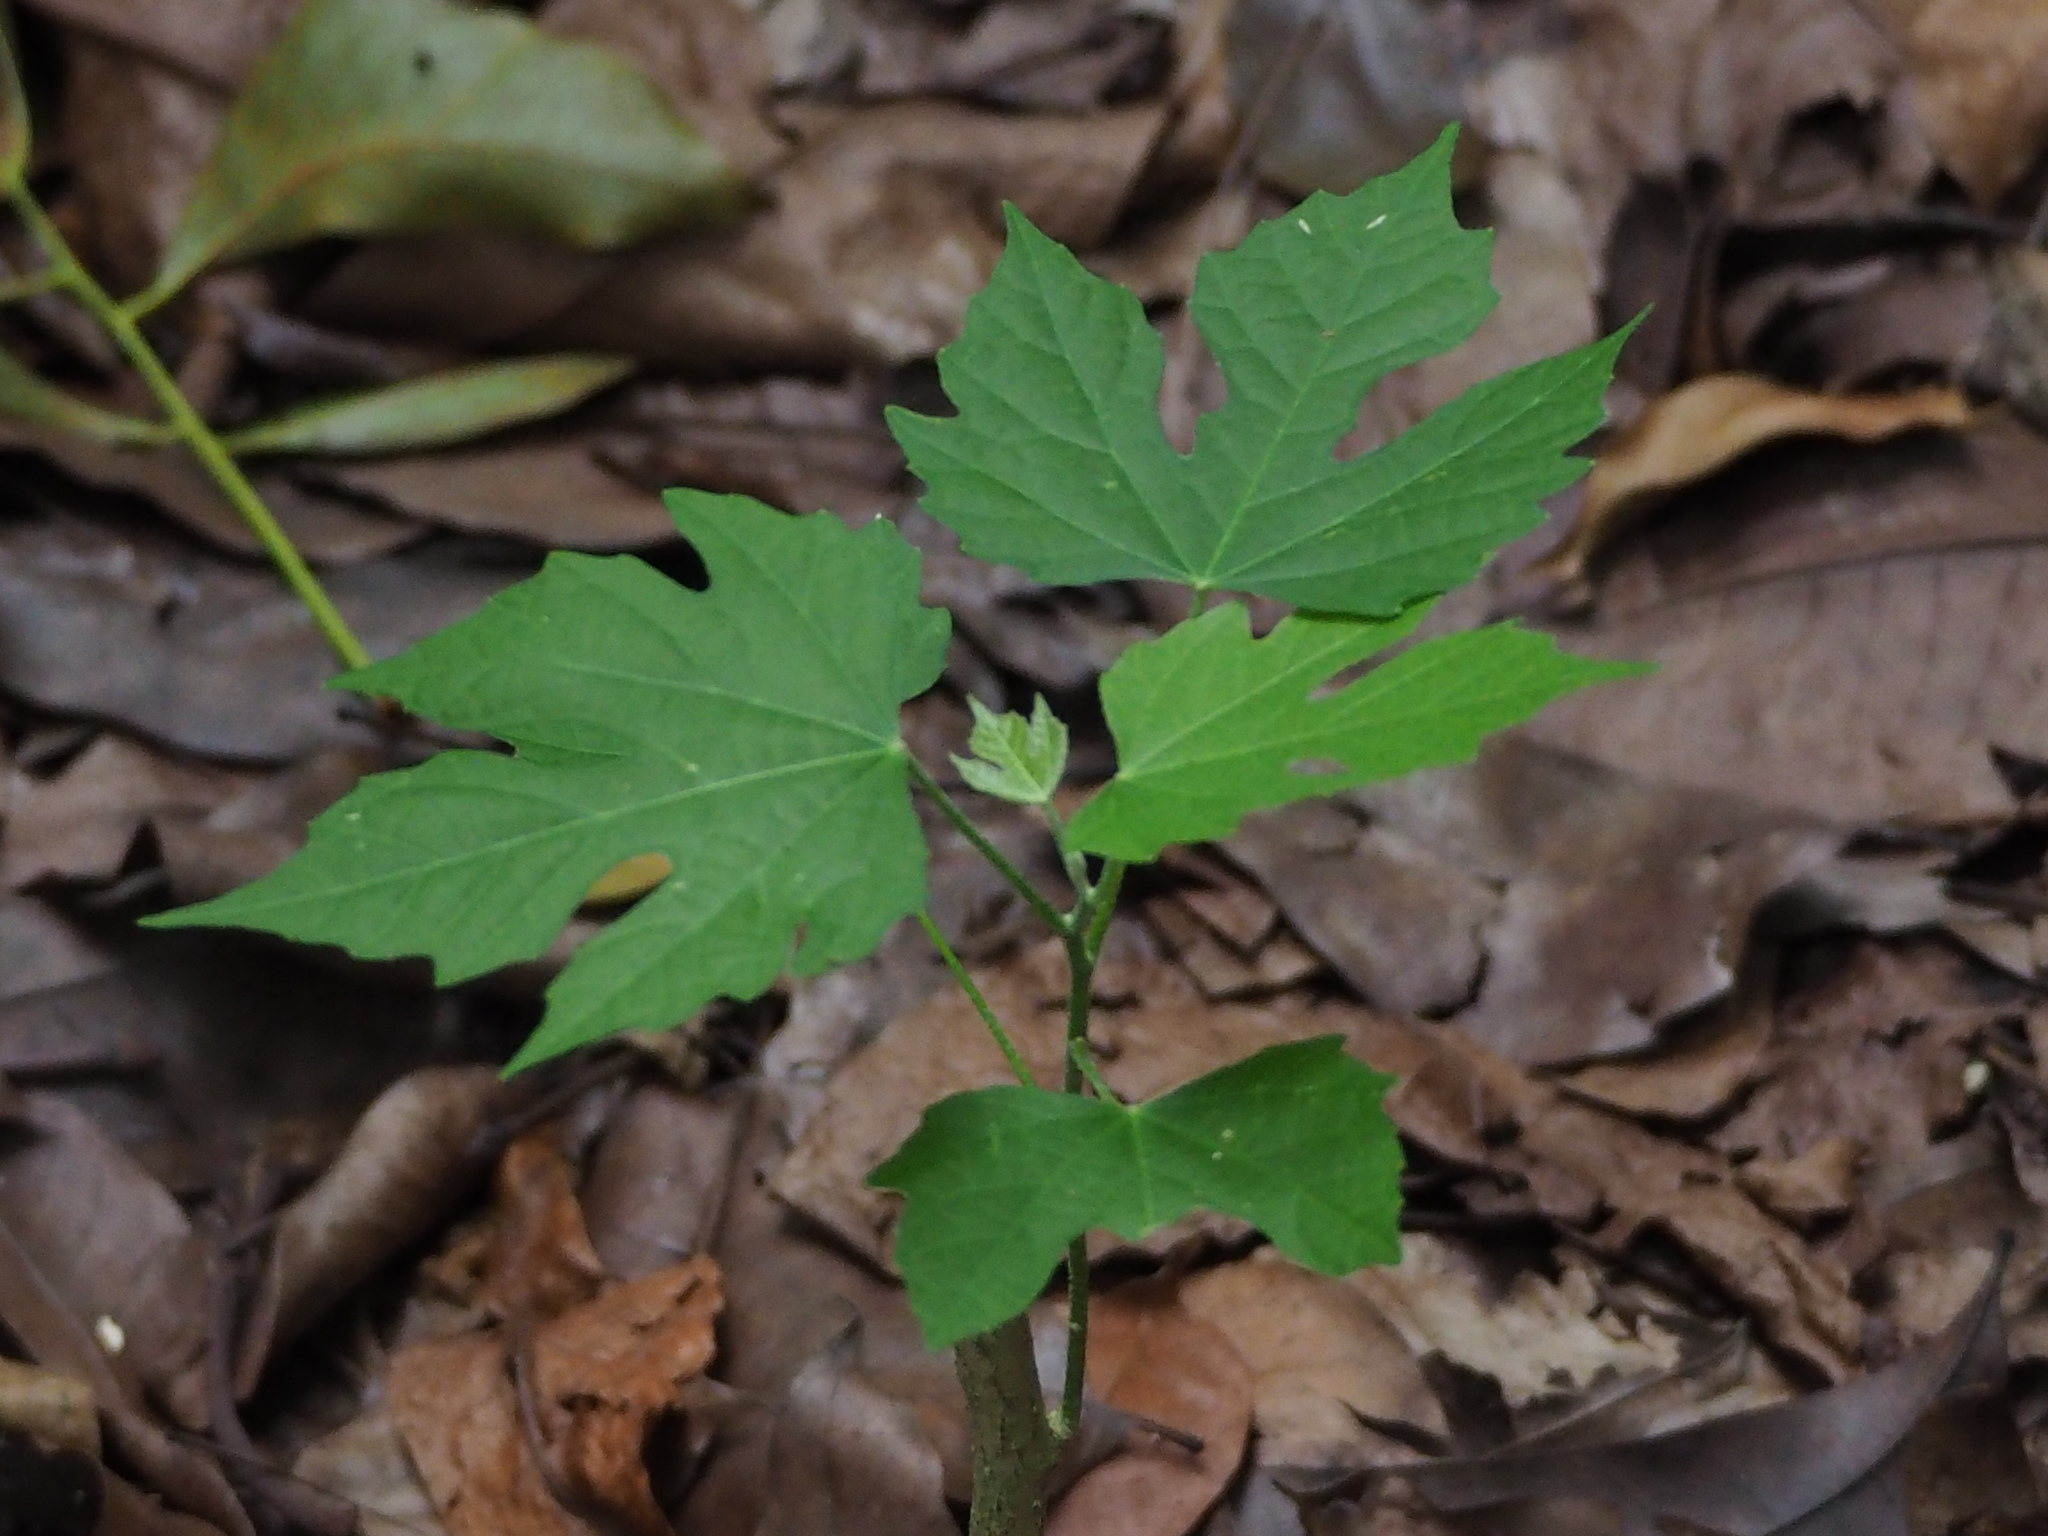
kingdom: Plantae
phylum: Tracheophyta
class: Magnoliopsida
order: Malpighiales
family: Euphorbiaceae
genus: Melanolepis
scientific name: Melanolepis multiglandulosa
